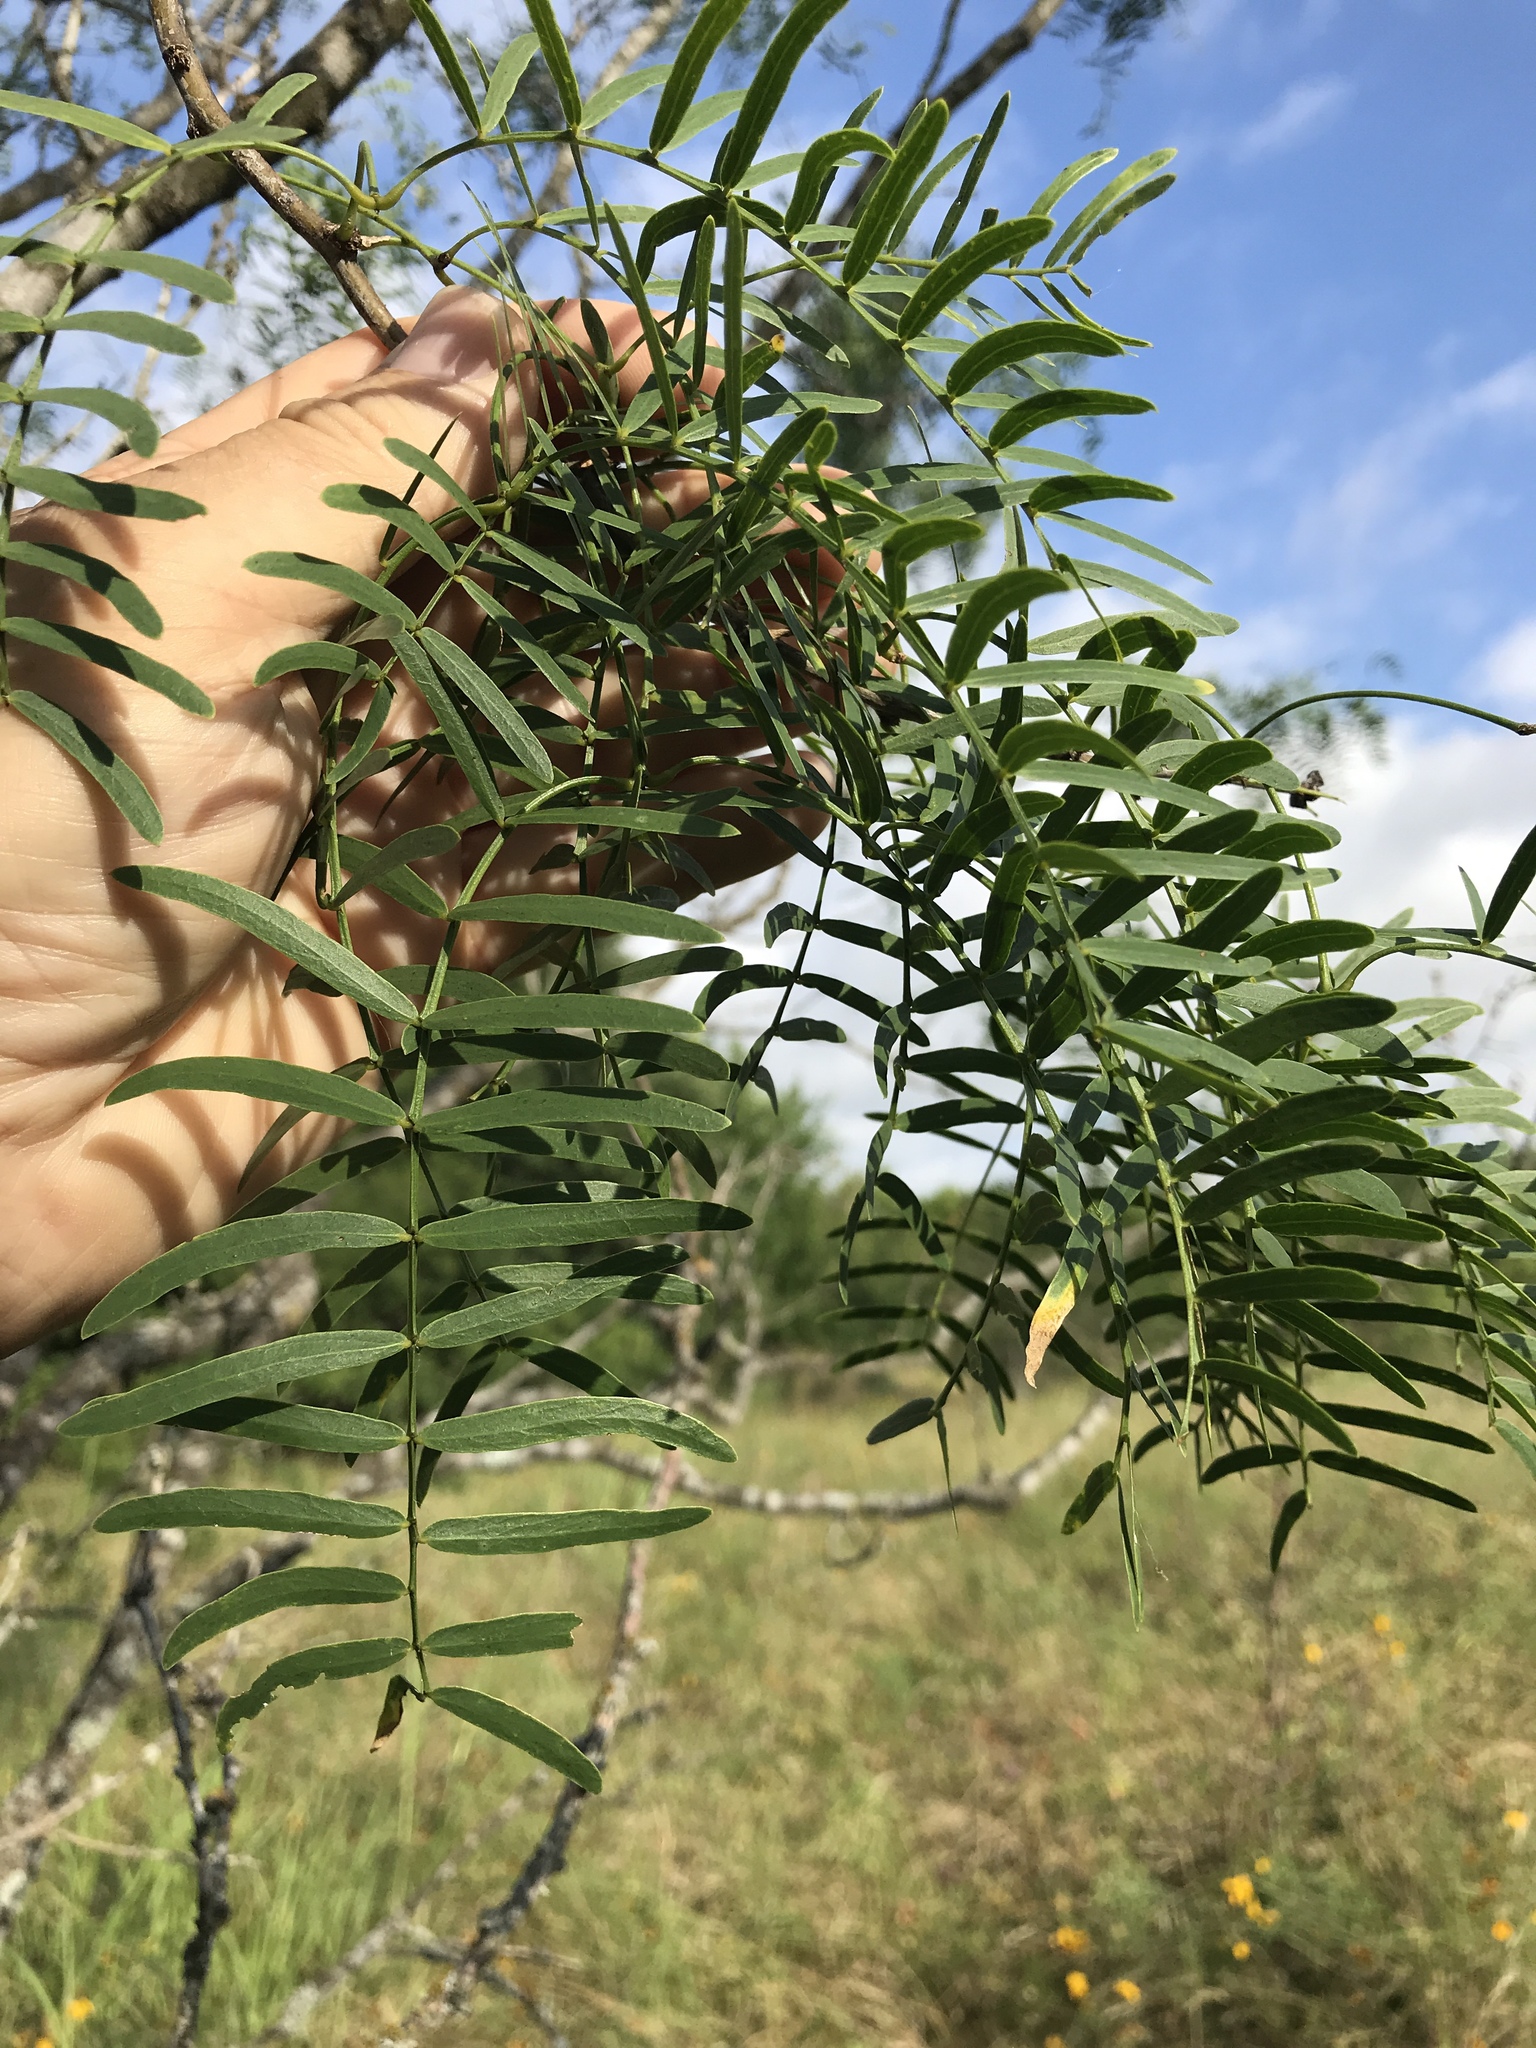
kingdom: Plantae
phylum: Tracheophyta
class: Magnoliopsida
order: Fabales
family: Fabaceae
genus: Prosopis
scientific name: Prosopis glandulosa
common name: Honey mesquite
